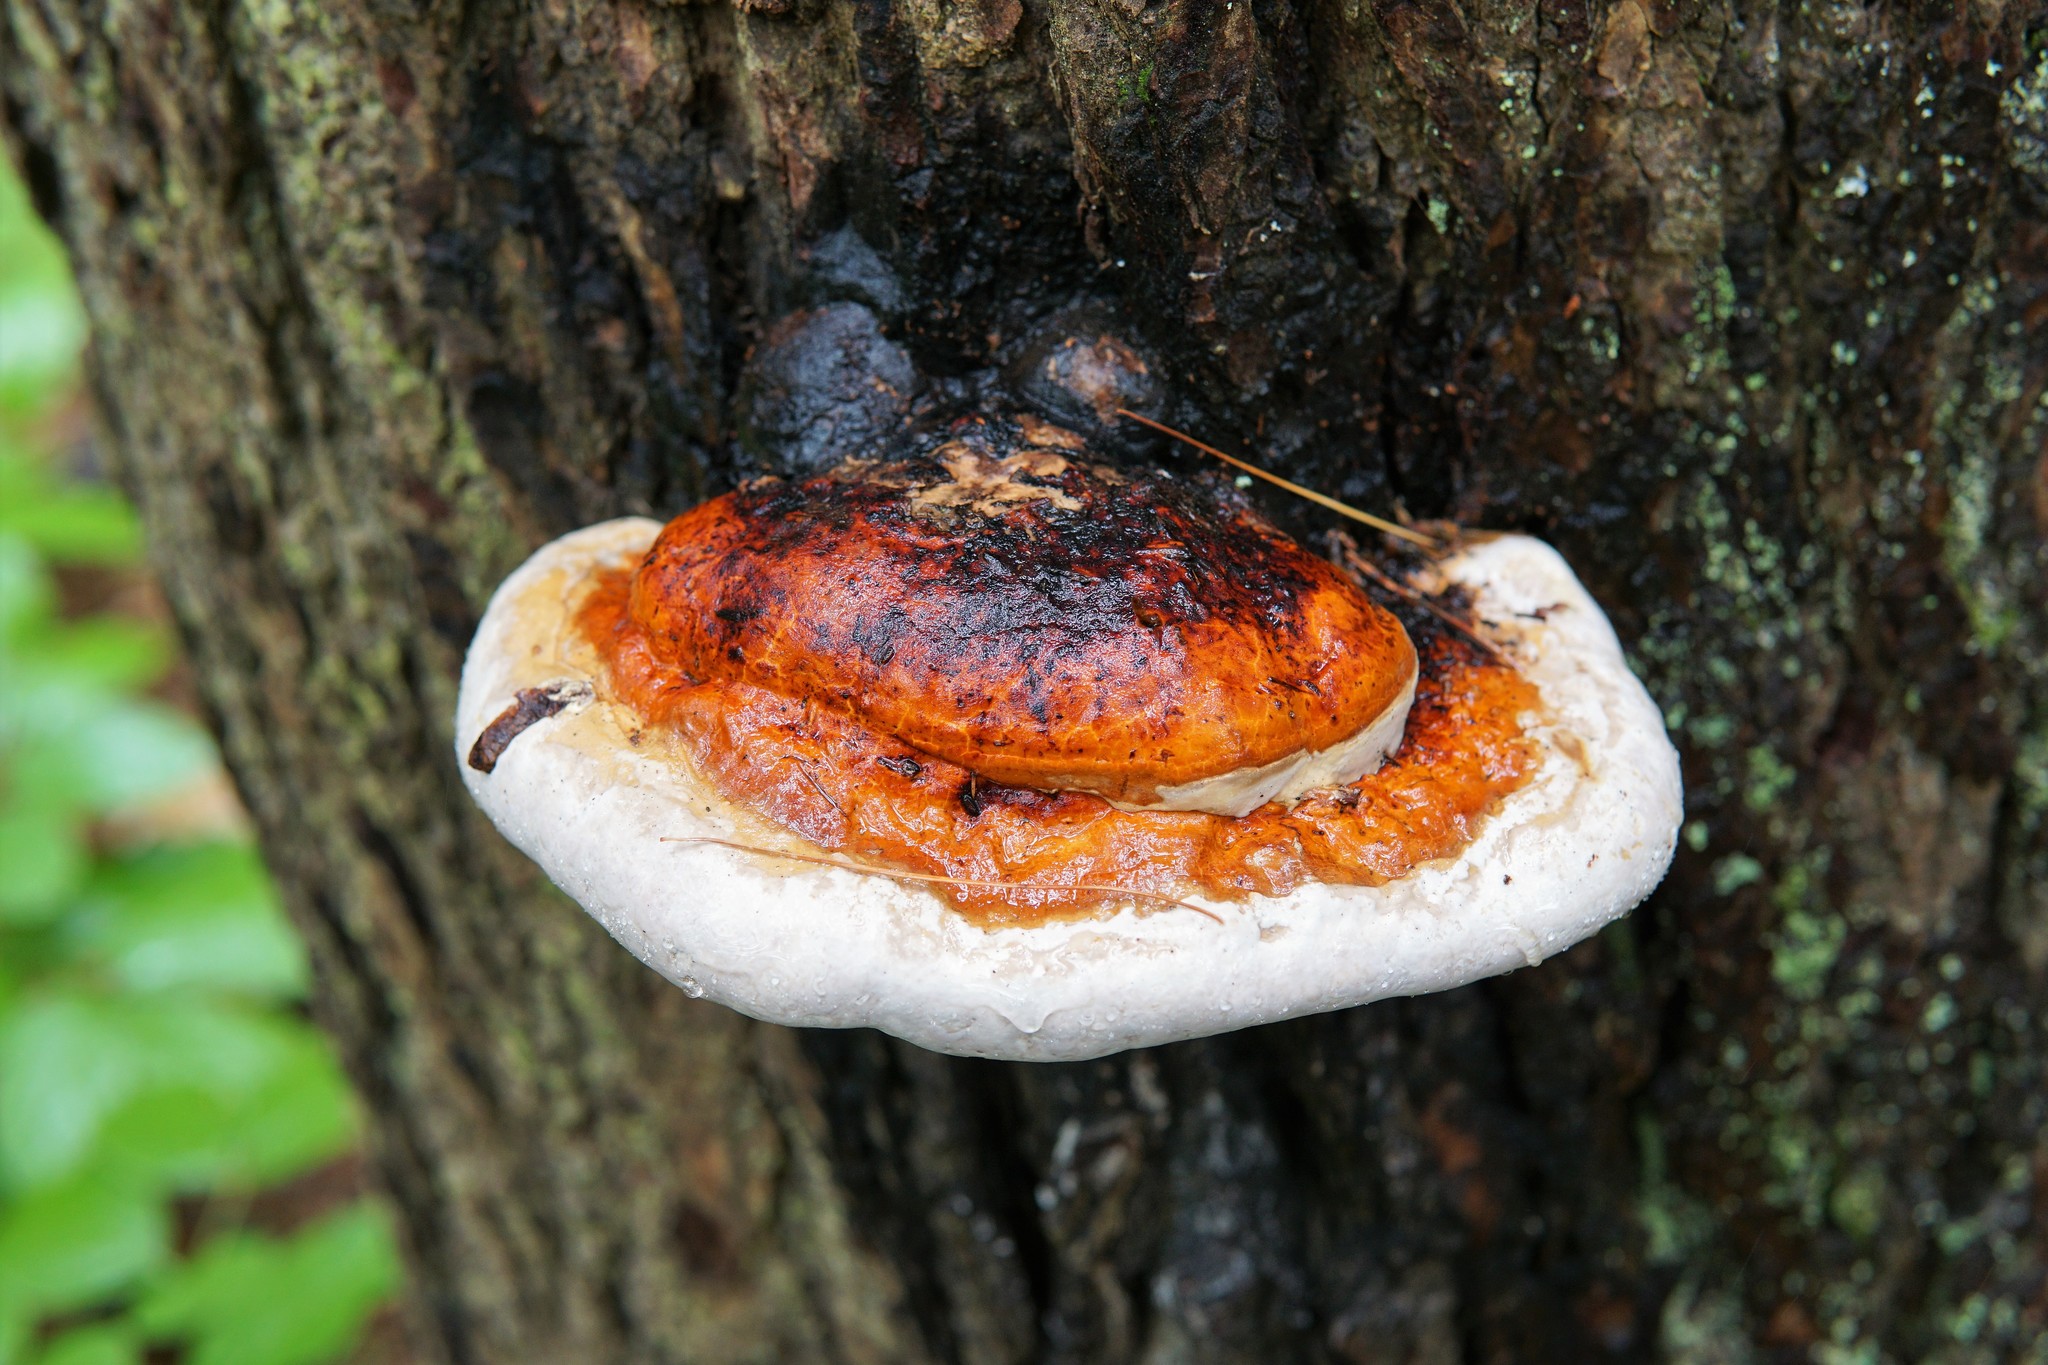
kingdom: Fungi
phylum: Basidiomycota
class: Agaricomycetes
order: Polyporales
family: Fomitopsidaceae
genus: Fomitopsis
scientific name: Fomitopsis mounceae
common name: Northern red belt
